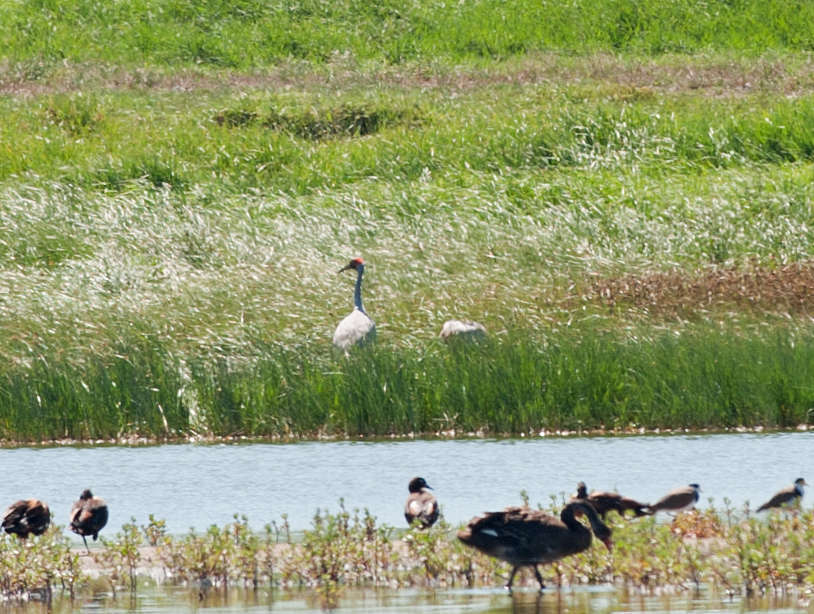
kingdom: Animalia
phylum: Chordata
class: Aves
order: Gruiformes
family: Gruidae
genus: Grus
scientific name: Grus rubicunda
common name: Brolga
